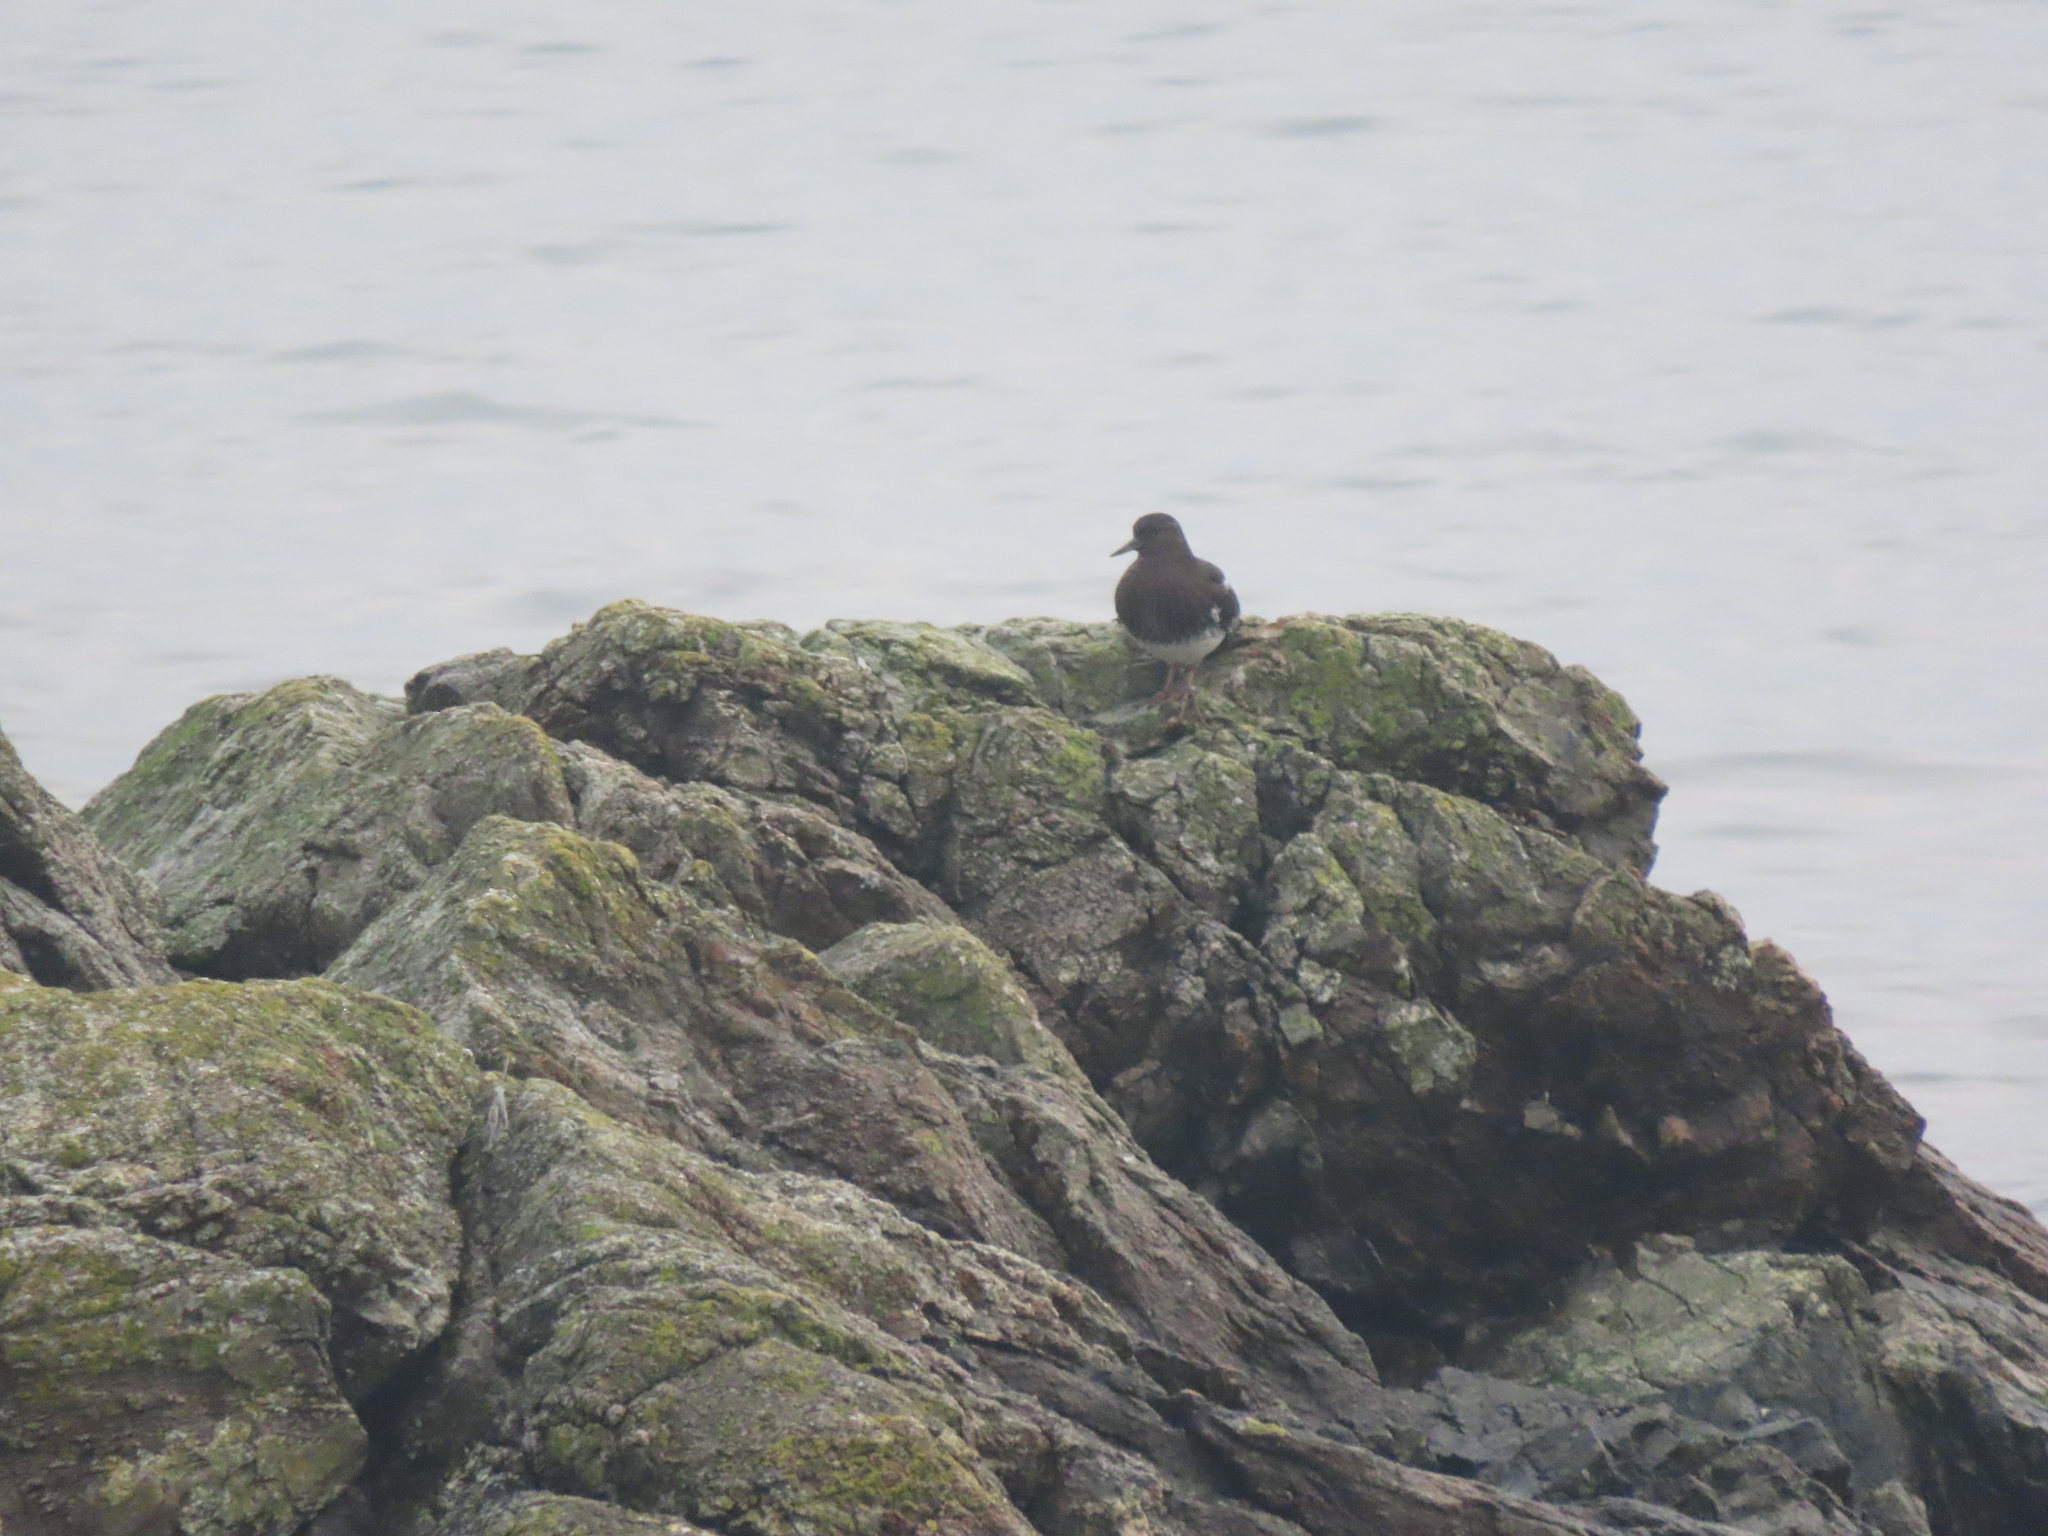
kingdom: Animalia
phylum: Chordata
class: Aves
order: Charadriiformes
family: Scolopacidae
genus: Arenaria
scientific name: Arenaria melanocephala
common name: Black turnstone
